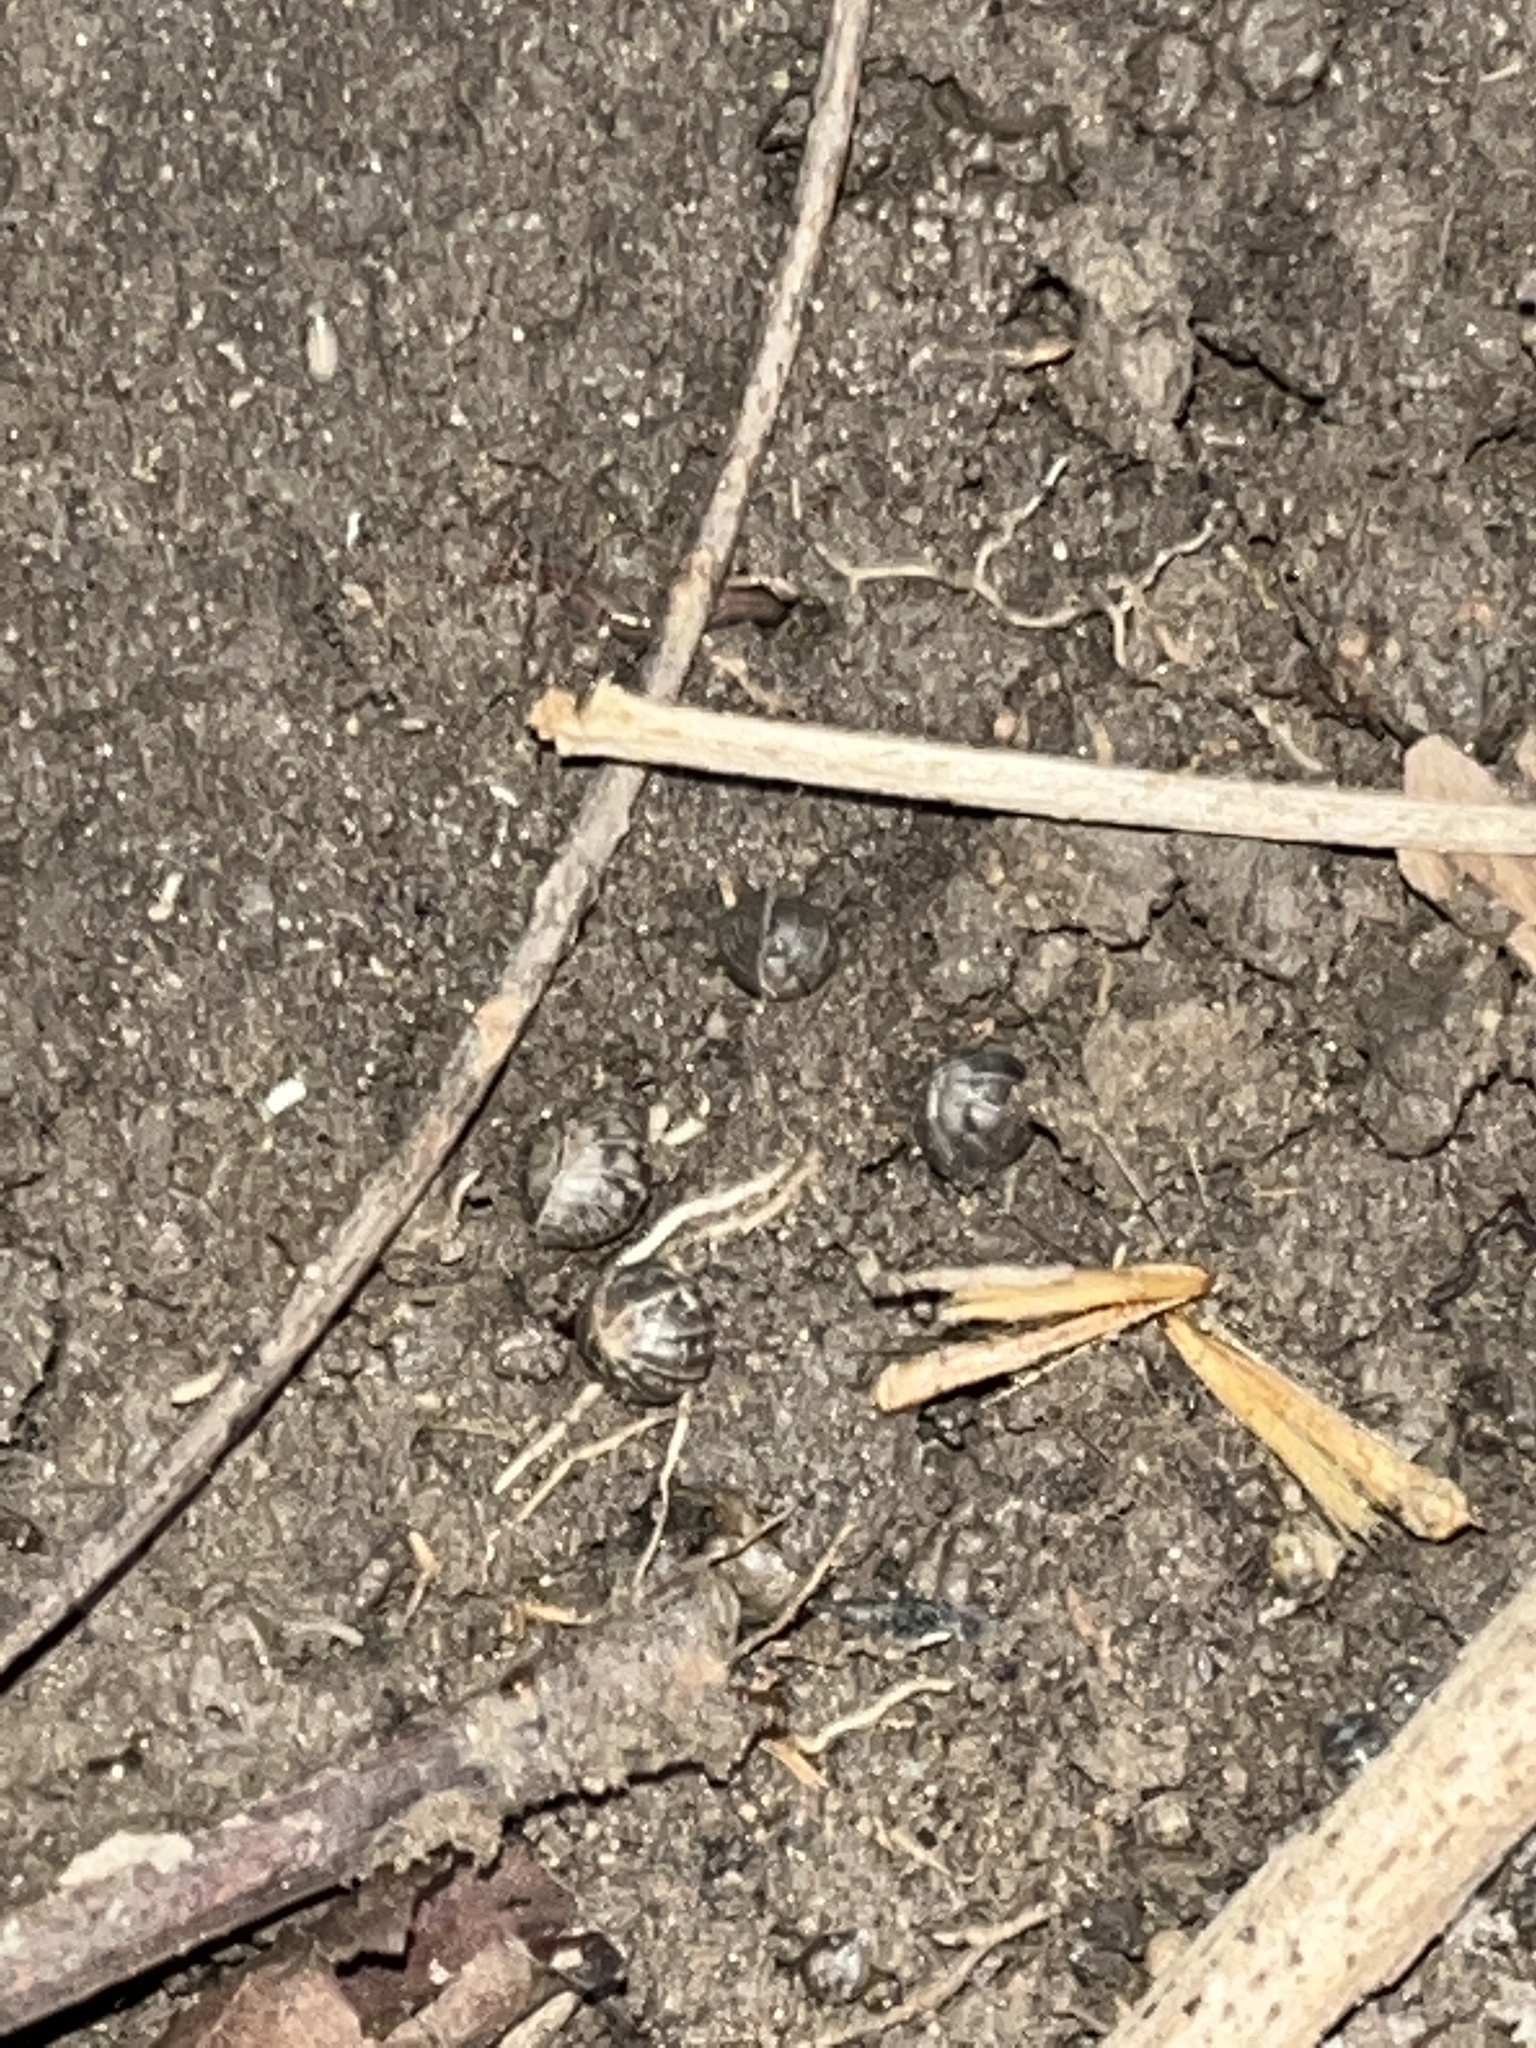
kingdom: Animalia
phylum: Arthropoda
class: Malacostraca
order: Isopoda
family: Armadillidiidae
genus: Armadillidium
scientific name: Armadillidium vulgare
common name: Common pill woodlouse
